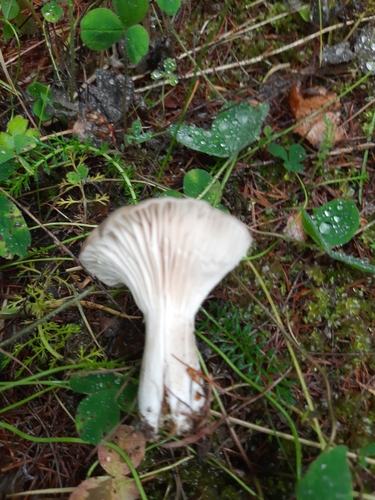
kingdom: Fungi
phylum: Basidiomycota
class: Agaricomycetes
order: Agaricales
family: Tricholomataceae
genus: Clitocybe
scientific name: Clitocybe nebularis
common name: Clouded agaric
